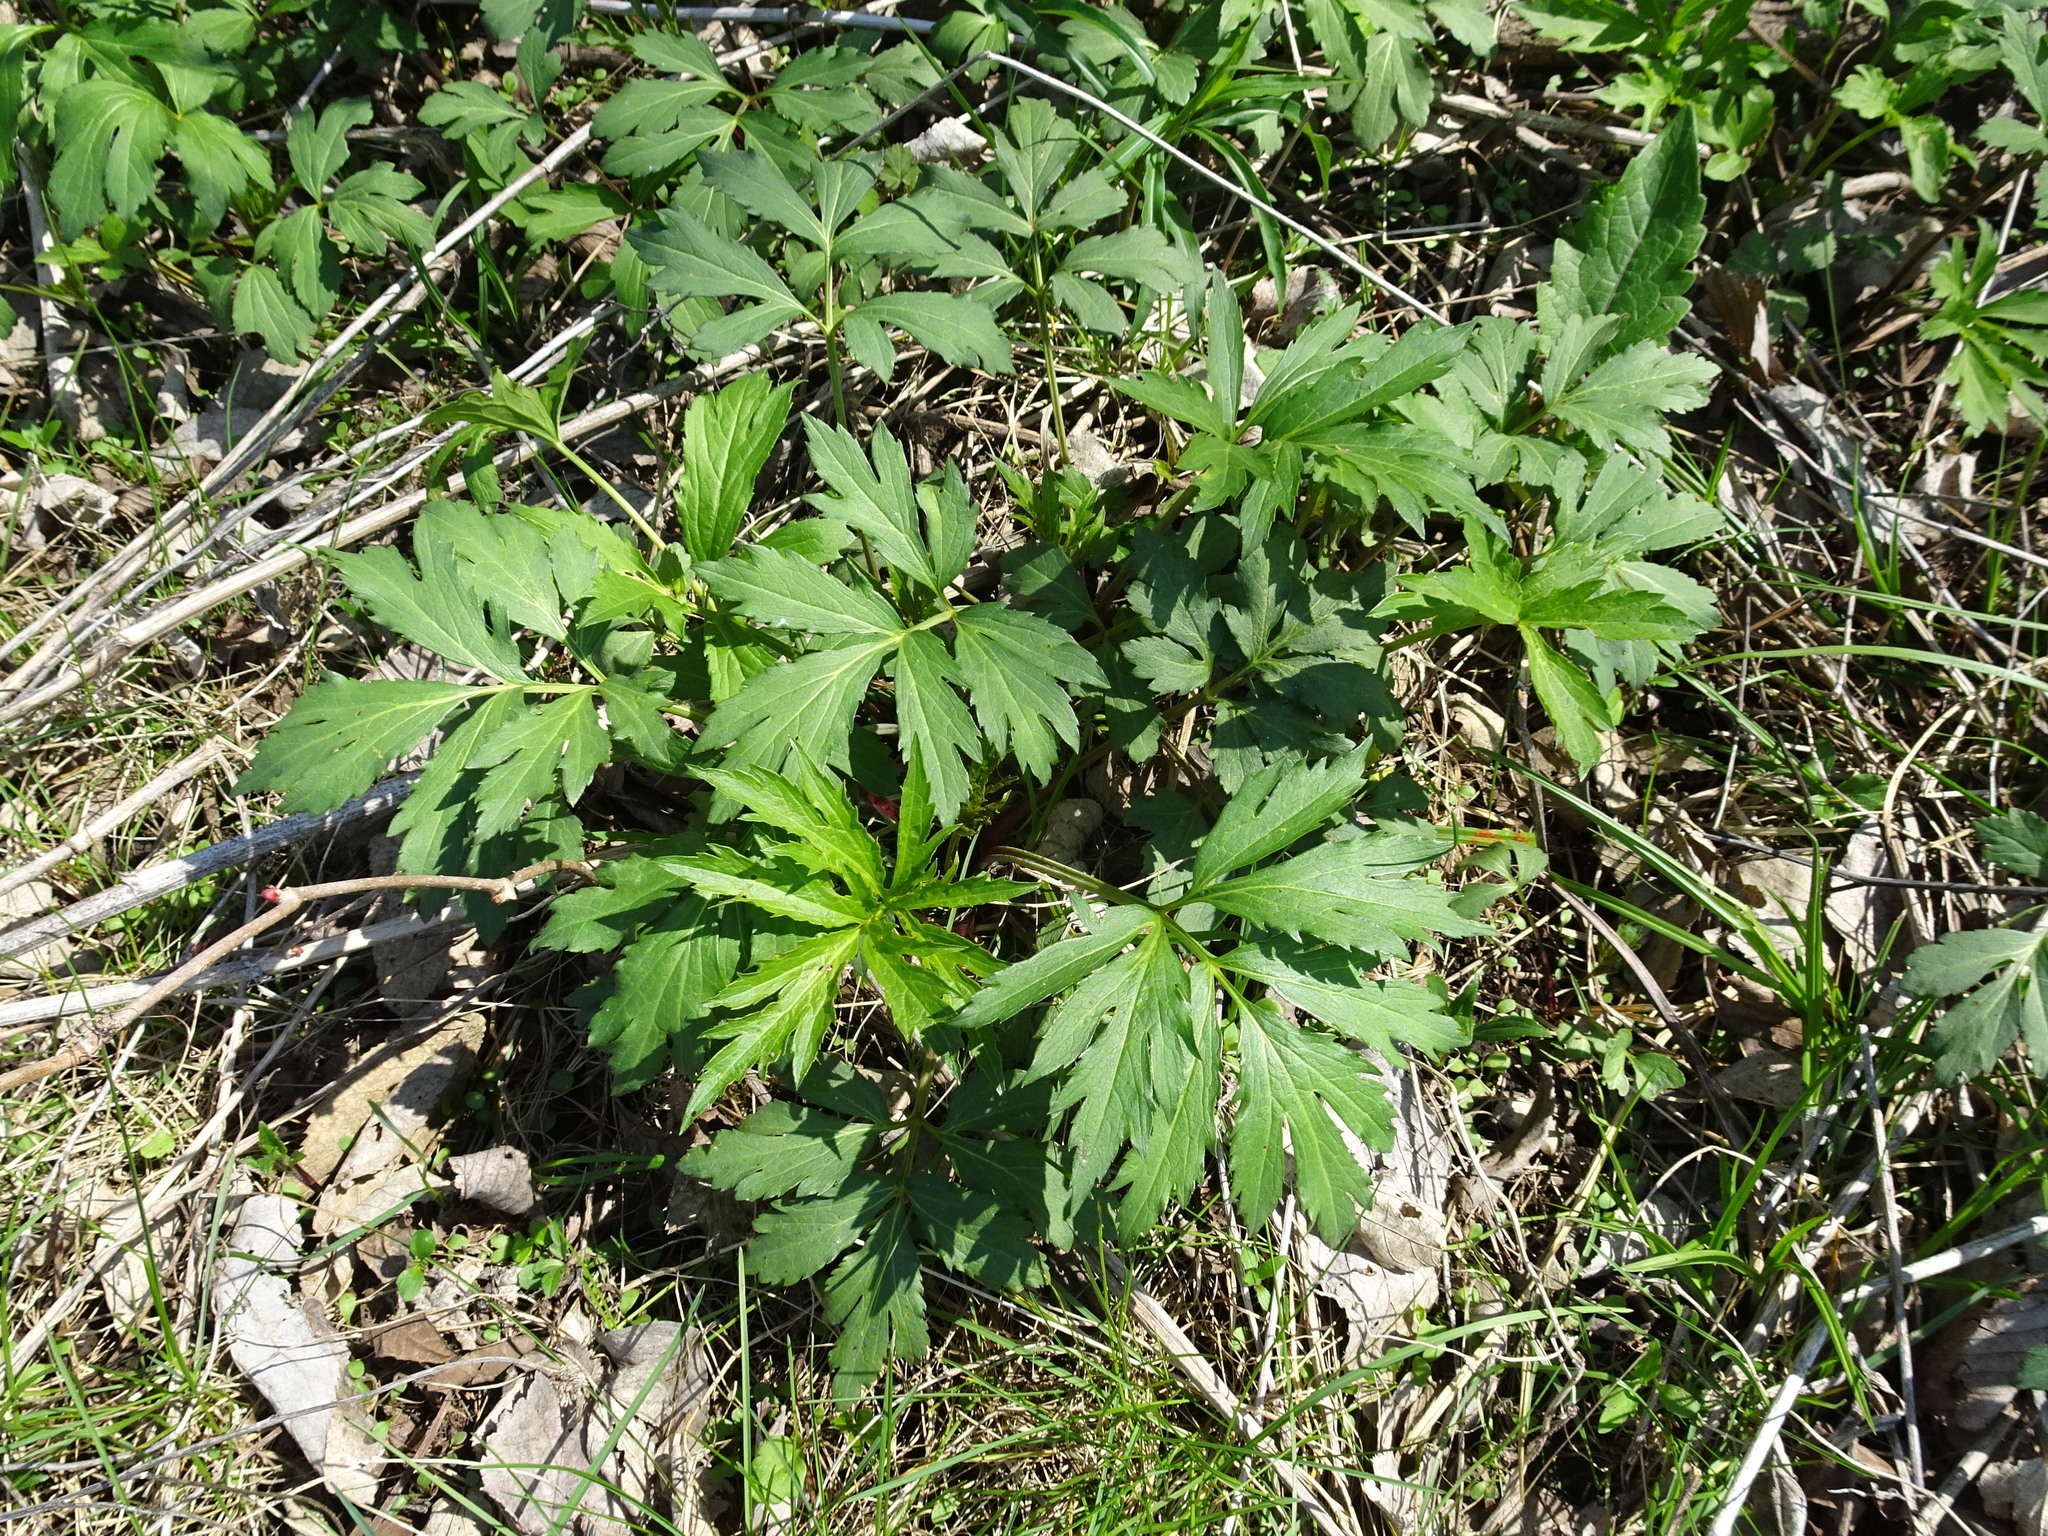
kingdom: Plantae
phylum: Tracheophyta
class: Magnoliopsida
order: Asterales
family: Asteraceae
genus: Rudbeckia
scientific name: Rudbeckia laciniata
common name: Coneflower
